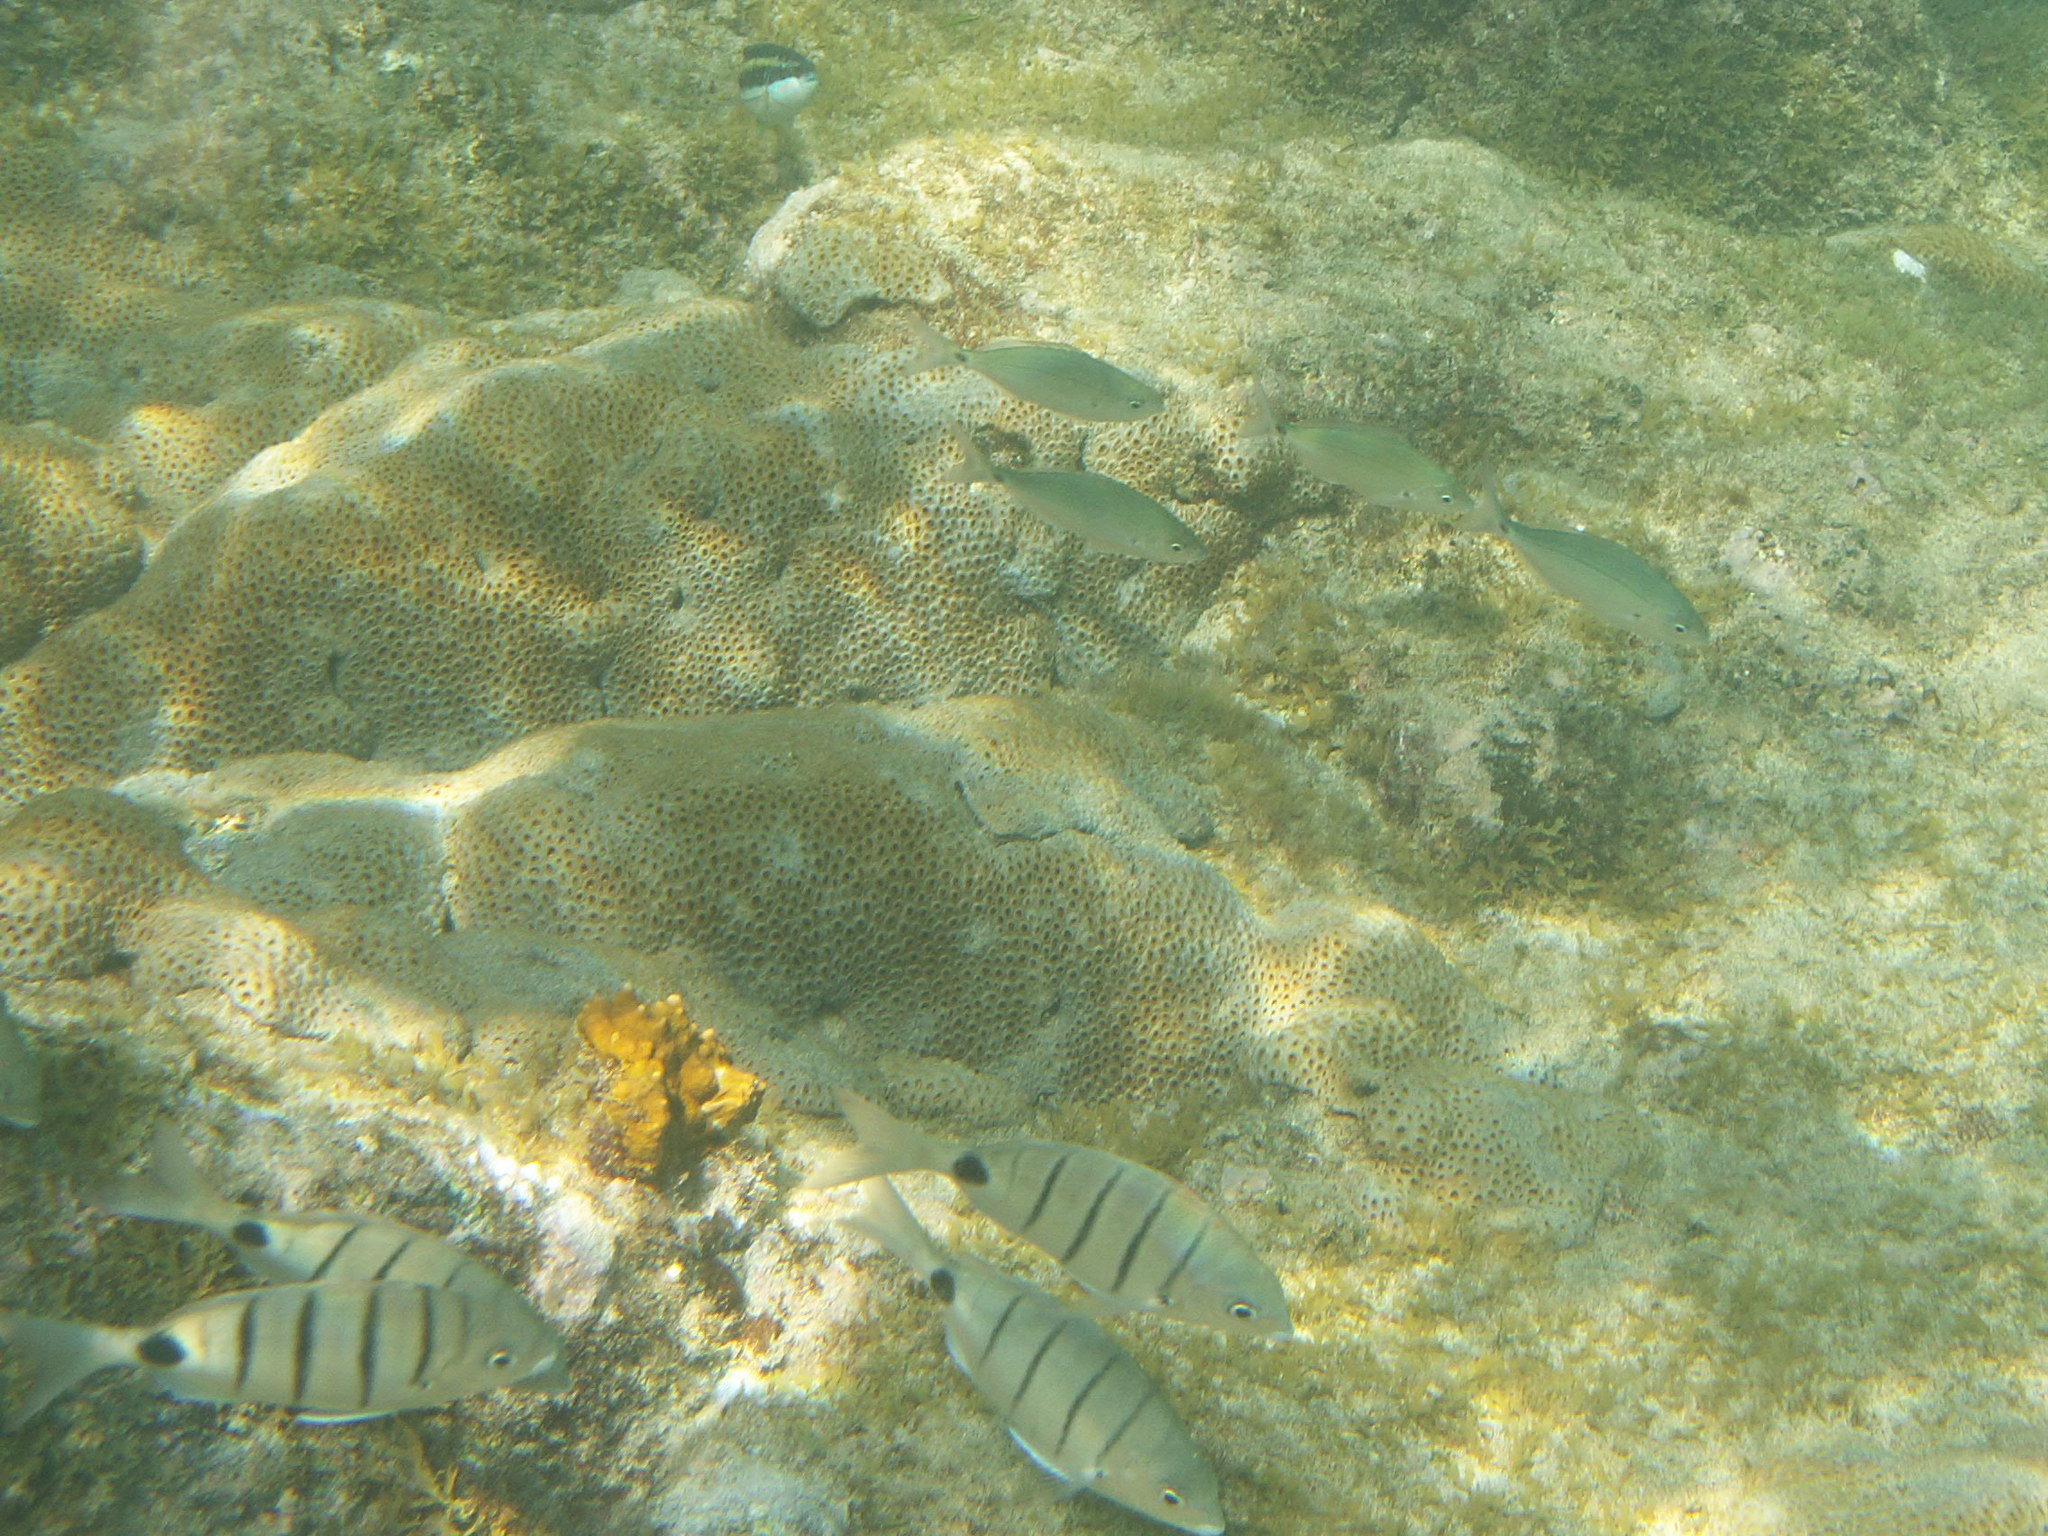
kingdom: Animalia
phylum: Chordata
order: Perciformes
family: Sparidae
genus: Spicara
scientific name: Spicara melanurus
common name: Blackspot picarel
